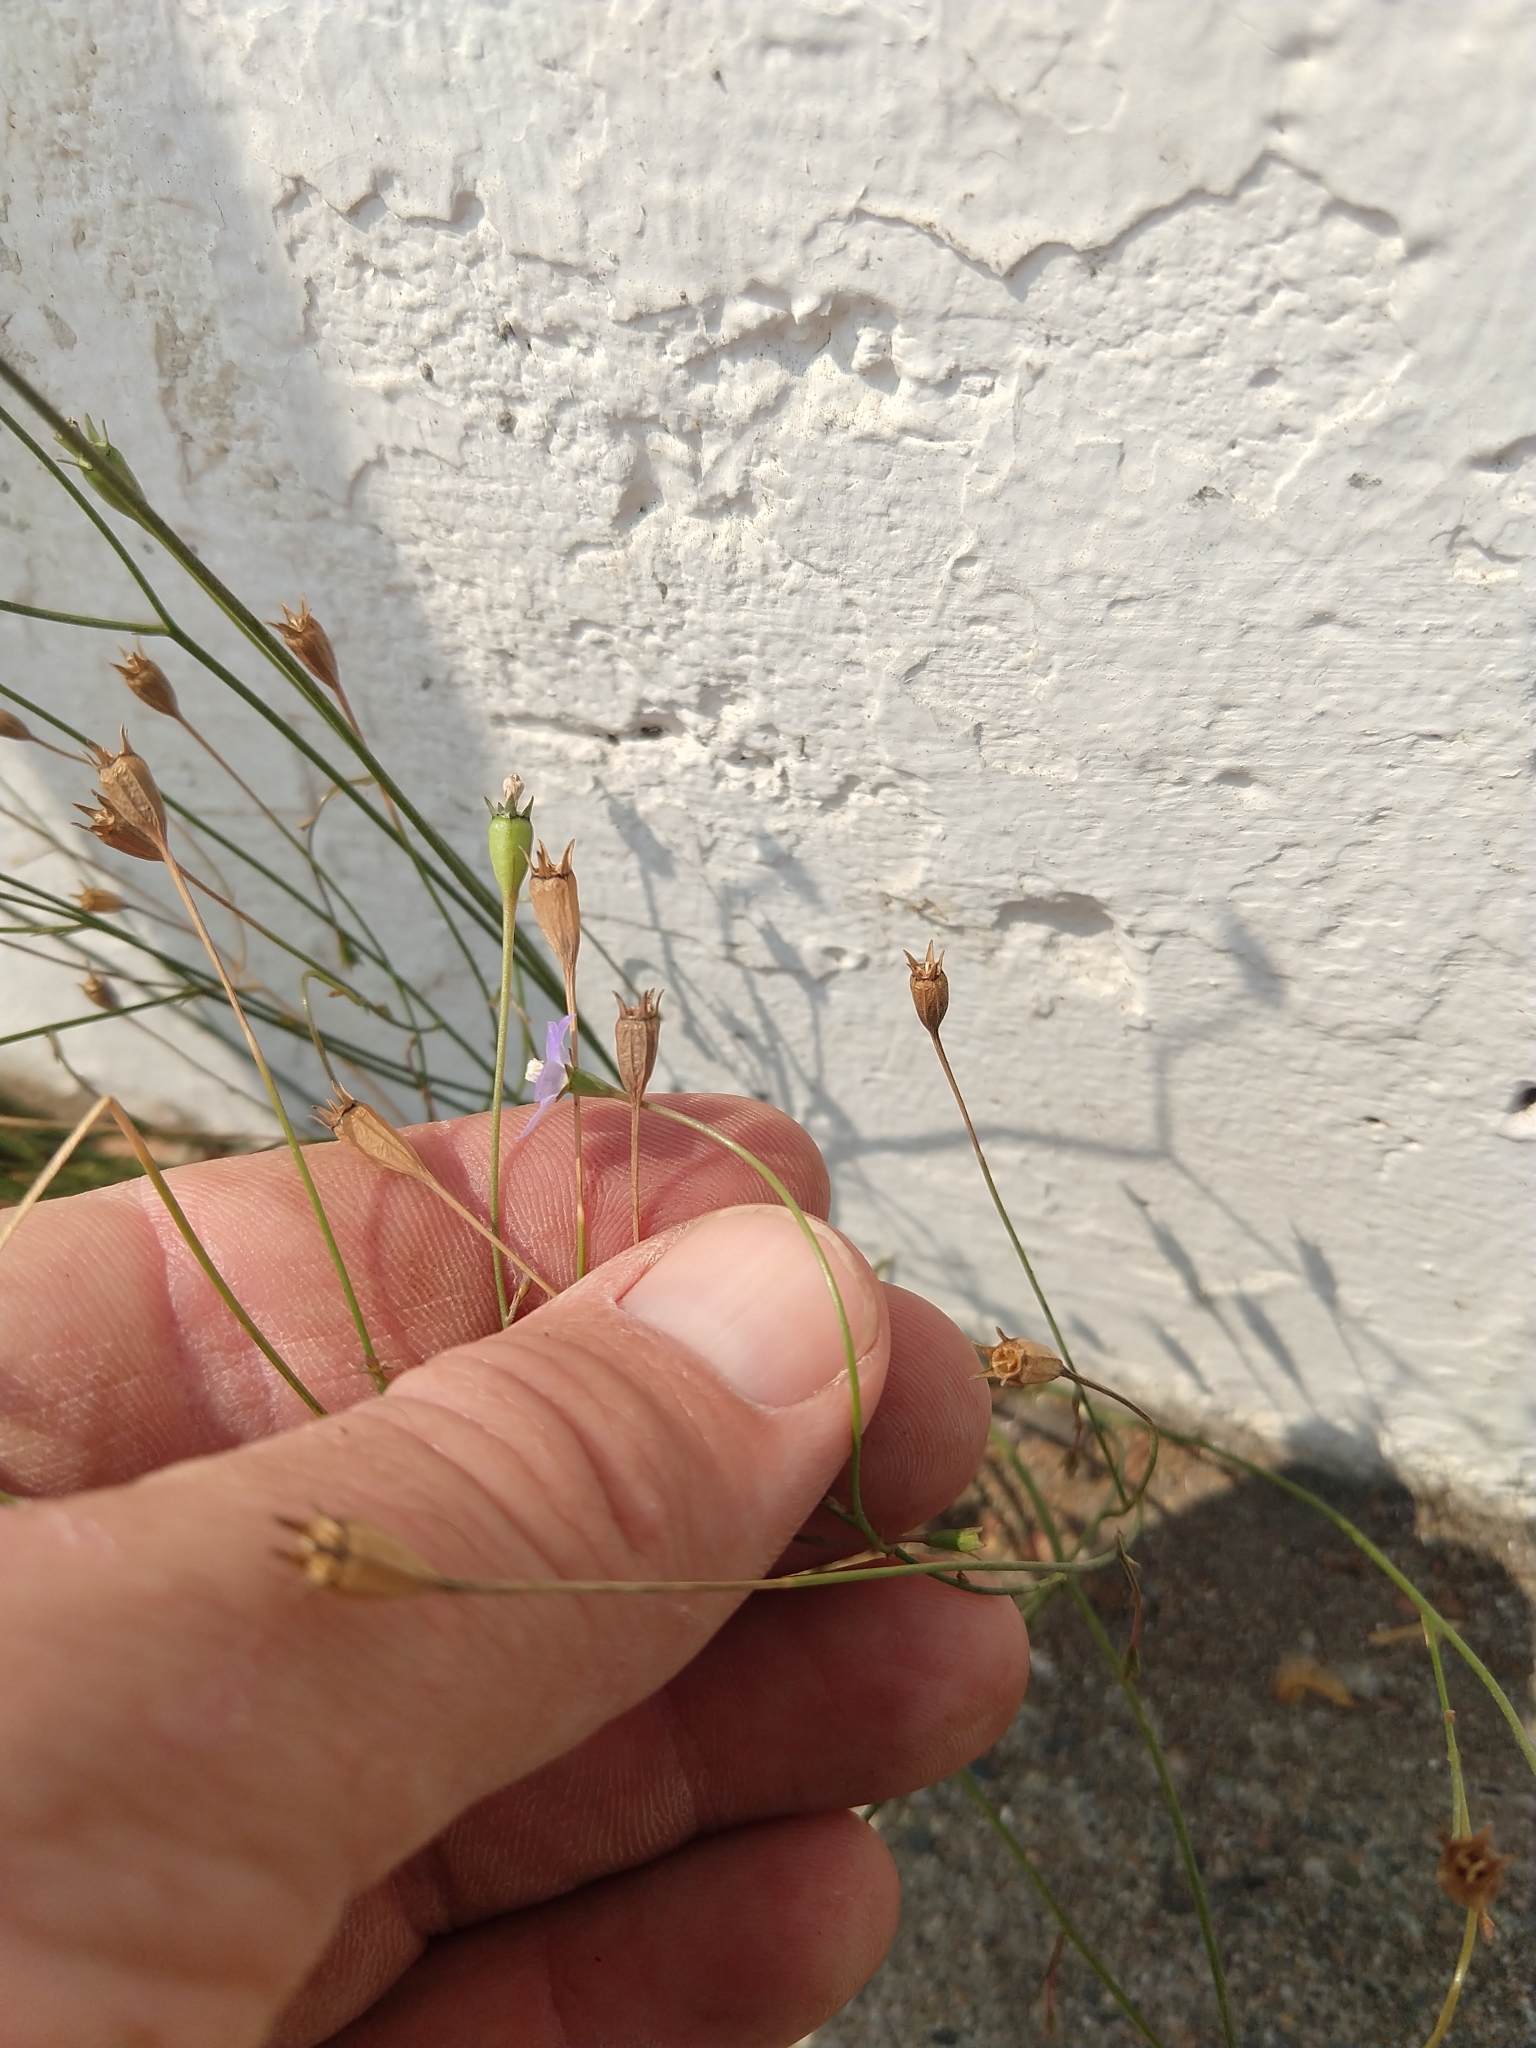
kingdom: Plantae
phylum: Tracheophyta
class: Magnoliopsida
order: Asterales
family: Campanulaceae
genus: Wahlenbergia
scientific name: Wahlenbergia marginata
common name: Southern rockbell
